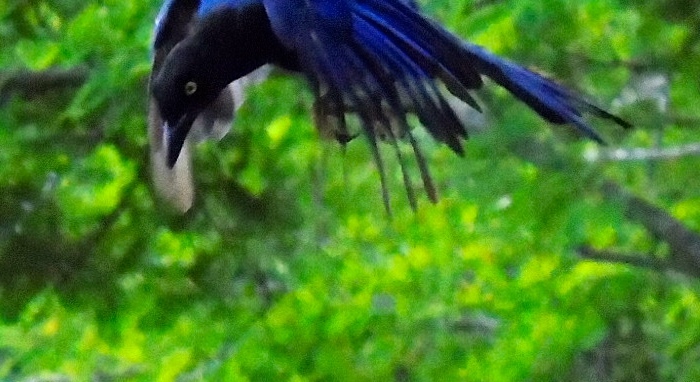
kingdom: Animalia
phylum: Chordata
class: Aves
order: Passeriformes
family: Corvidae
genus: Cyanocorax
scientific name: Cyanocorax beecheii
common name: Purplish-backed jay
